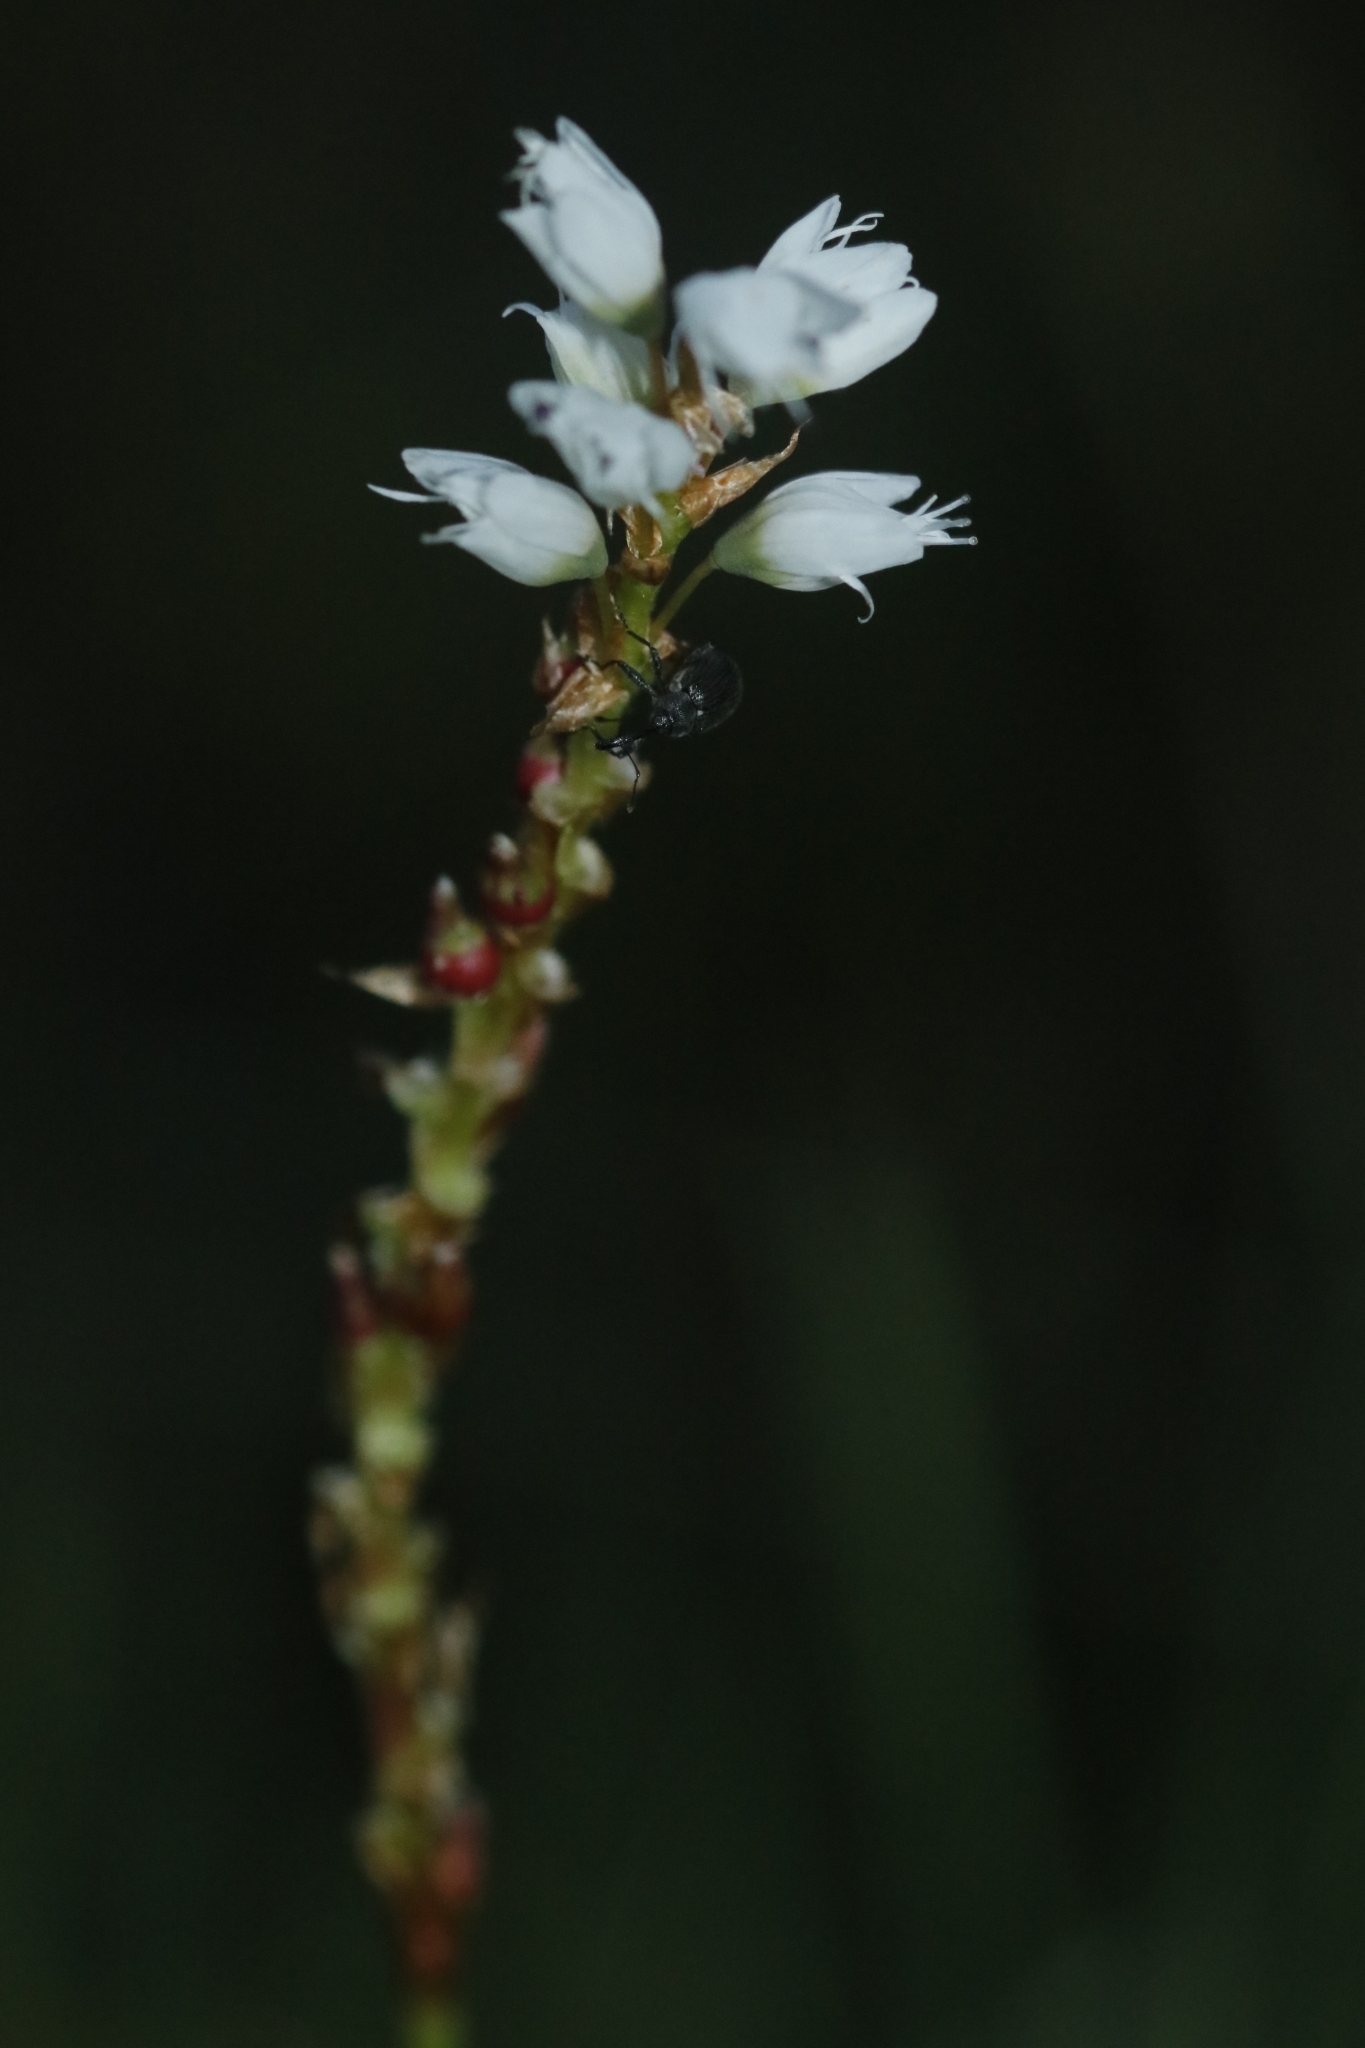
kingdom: Plantae
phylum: Tracheophyta
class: Magnoliopsida
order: Caryophyllales
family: Polygonaceae
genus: Bistorta
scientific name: Bistorta vivipara
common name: Alpine bistort
